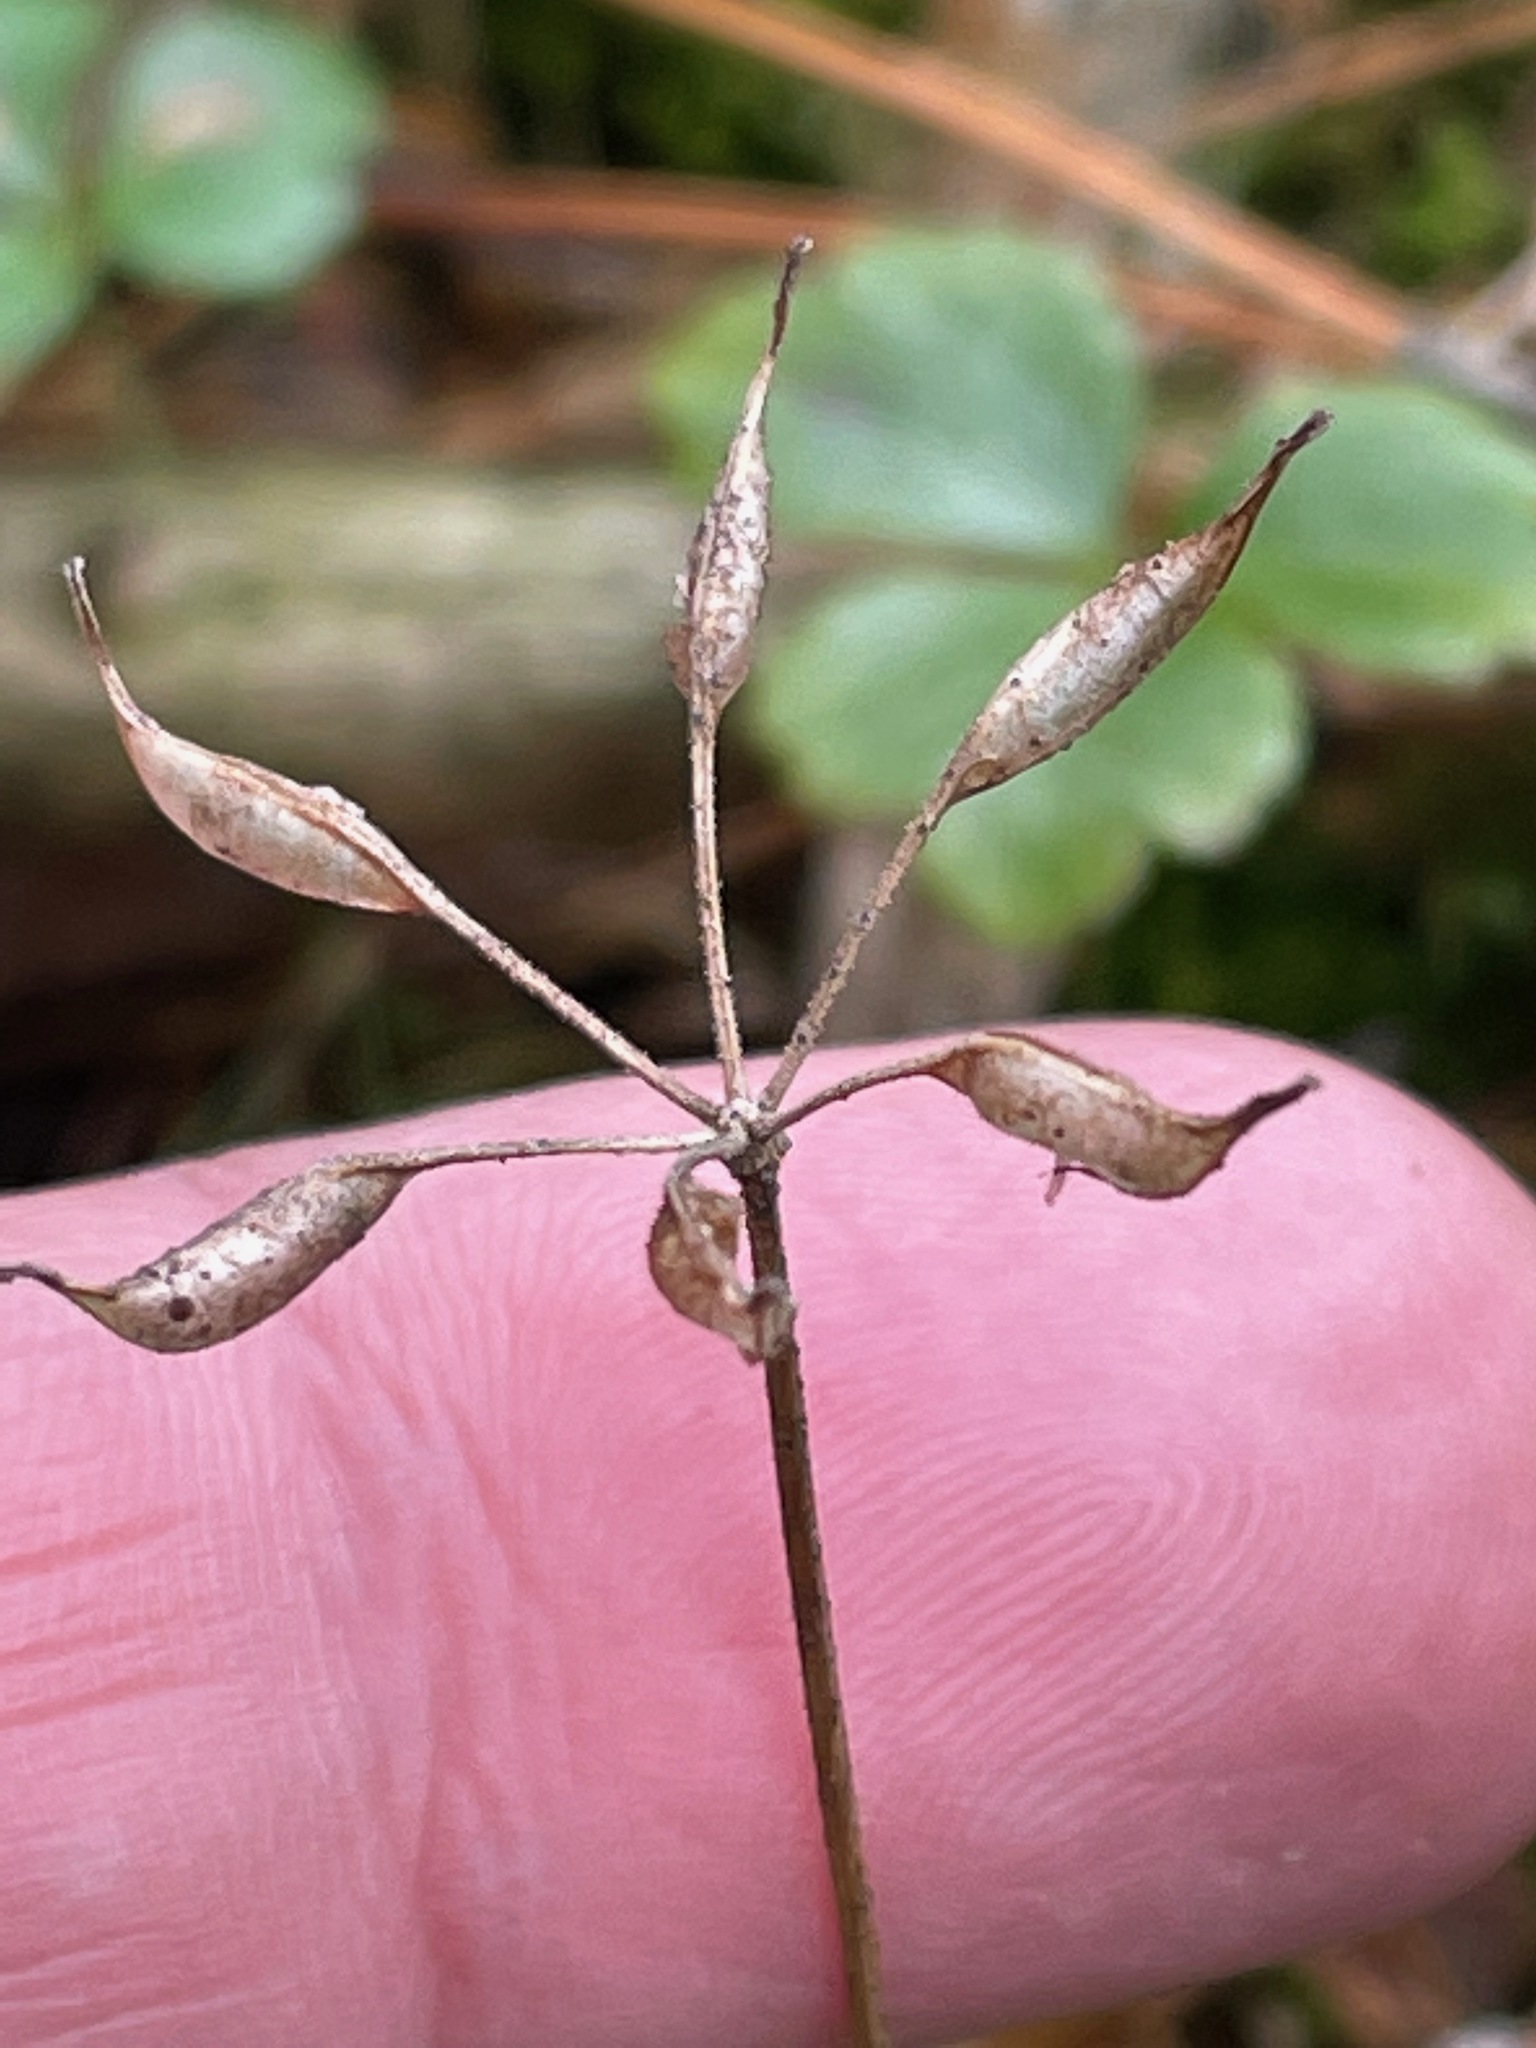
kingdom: Plantae
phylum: Tracheophyta
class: Magnoliopsida
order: Ranunculales
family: Ranunculaceae
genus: Coptis
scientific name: Coptis trifolia
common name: Canker-root
